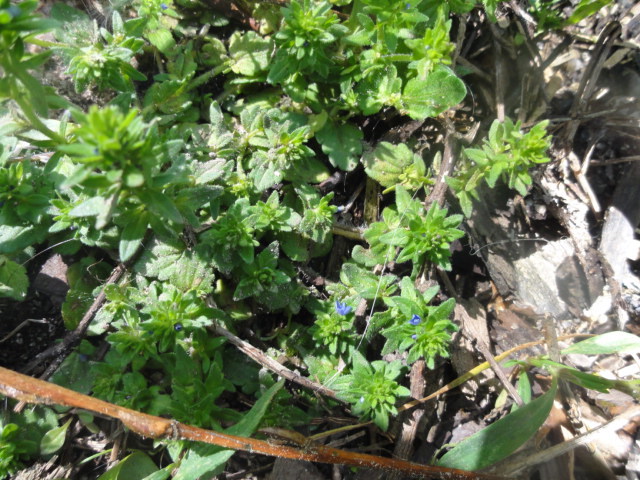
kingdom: Plantae
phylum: Tracheophyta
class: Magnoliopsida
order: Lamiales
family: Plantaginaceae
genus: Veronica
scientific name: Veronica arvensis
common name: Corn speedwell
